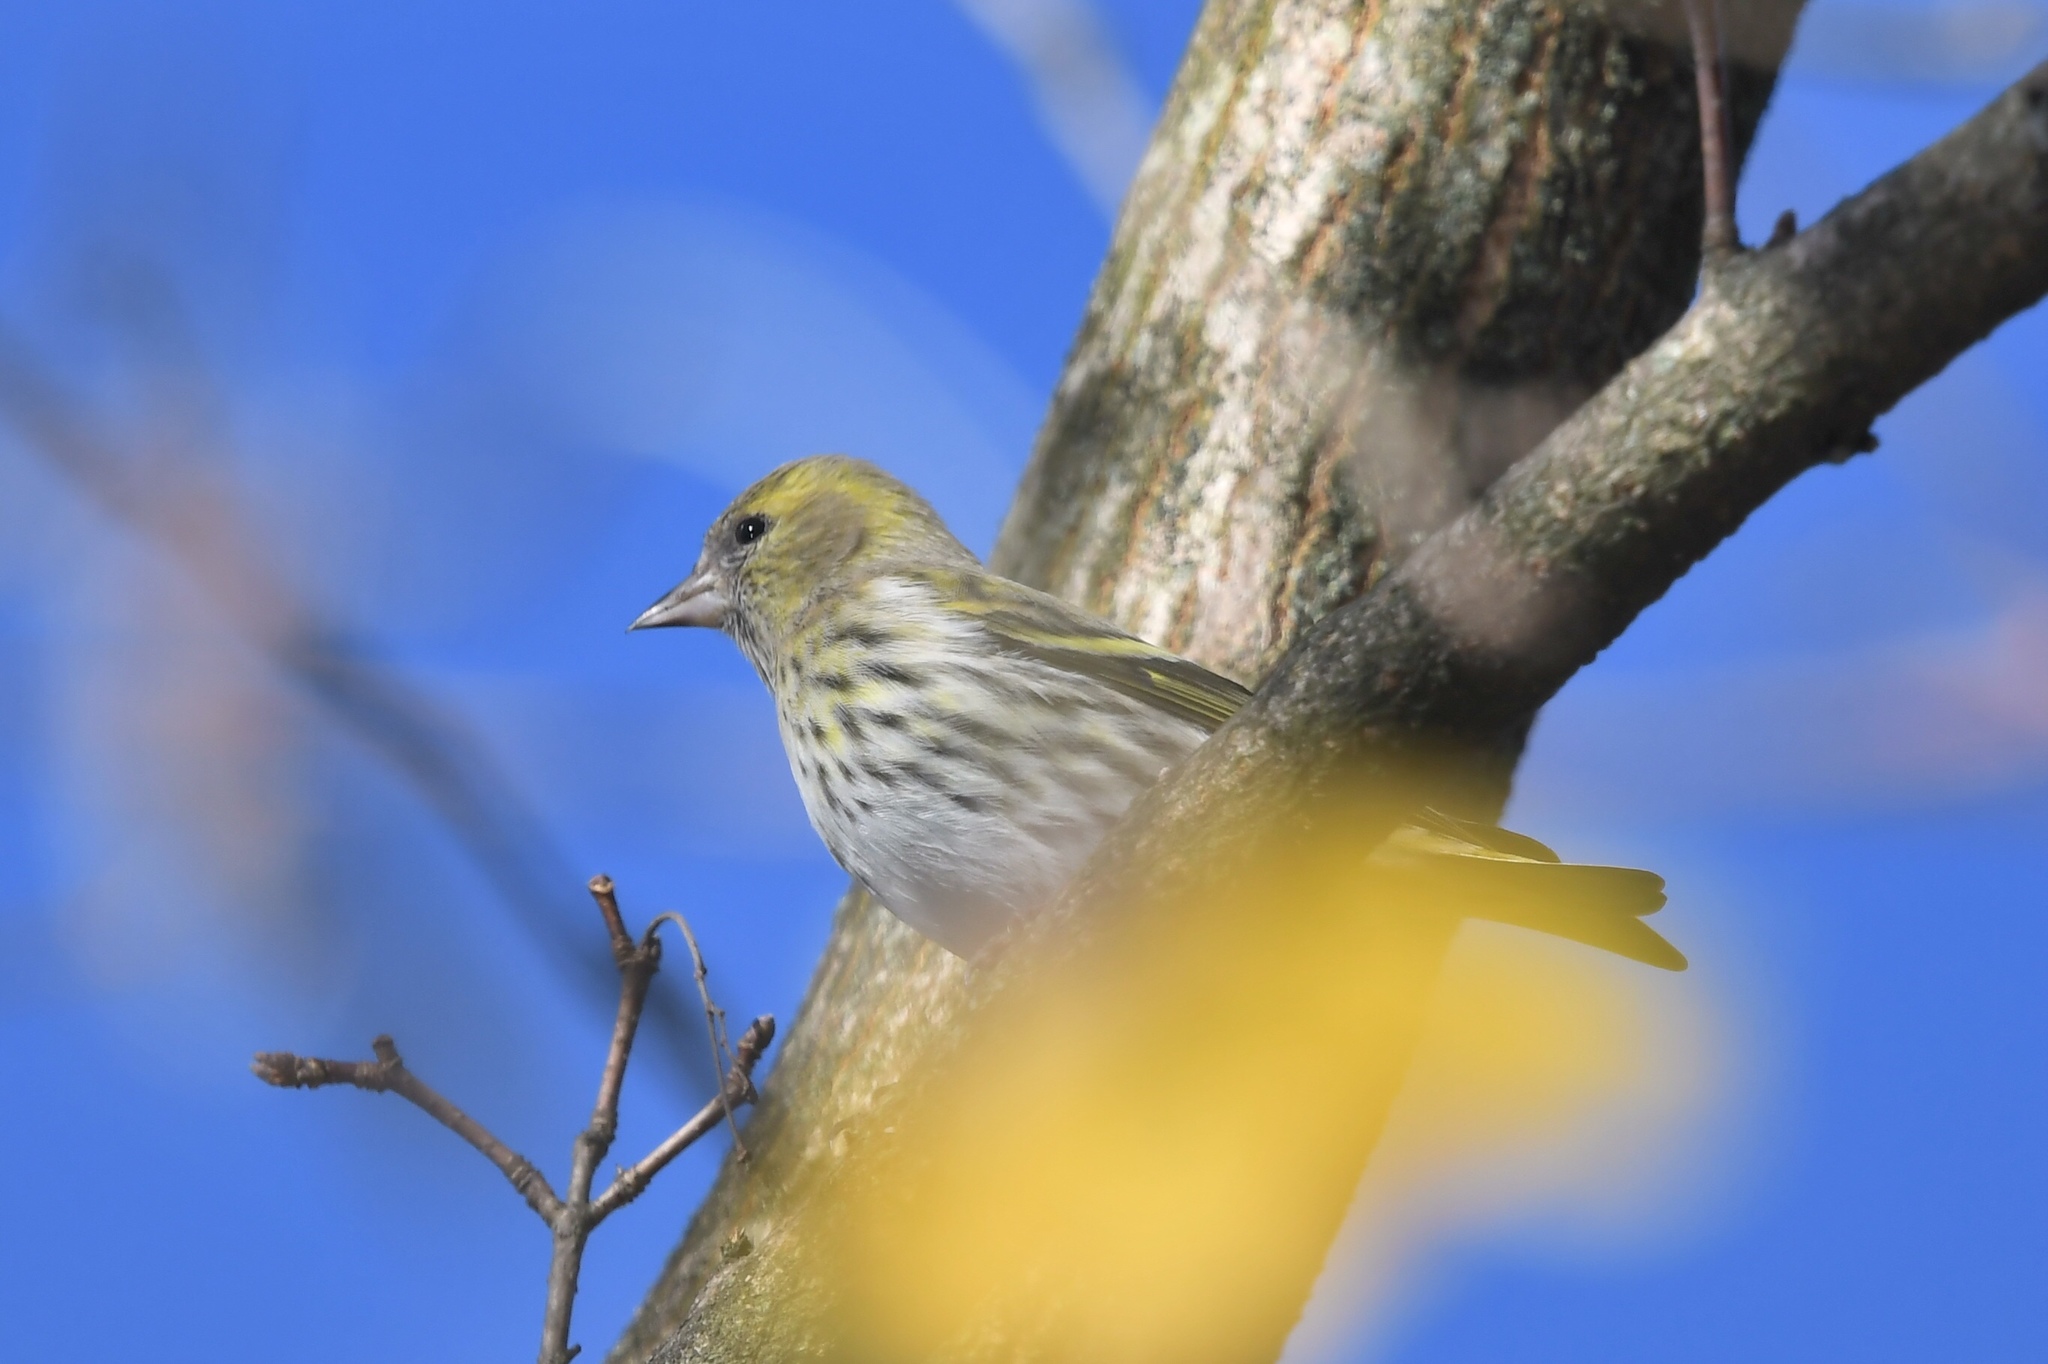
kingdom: Animalia
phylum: Chordata
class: Aves
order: Passeriformes
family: Fringillidae
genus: Spinus
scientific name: Spinus spinus
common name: Eurasian siskin
